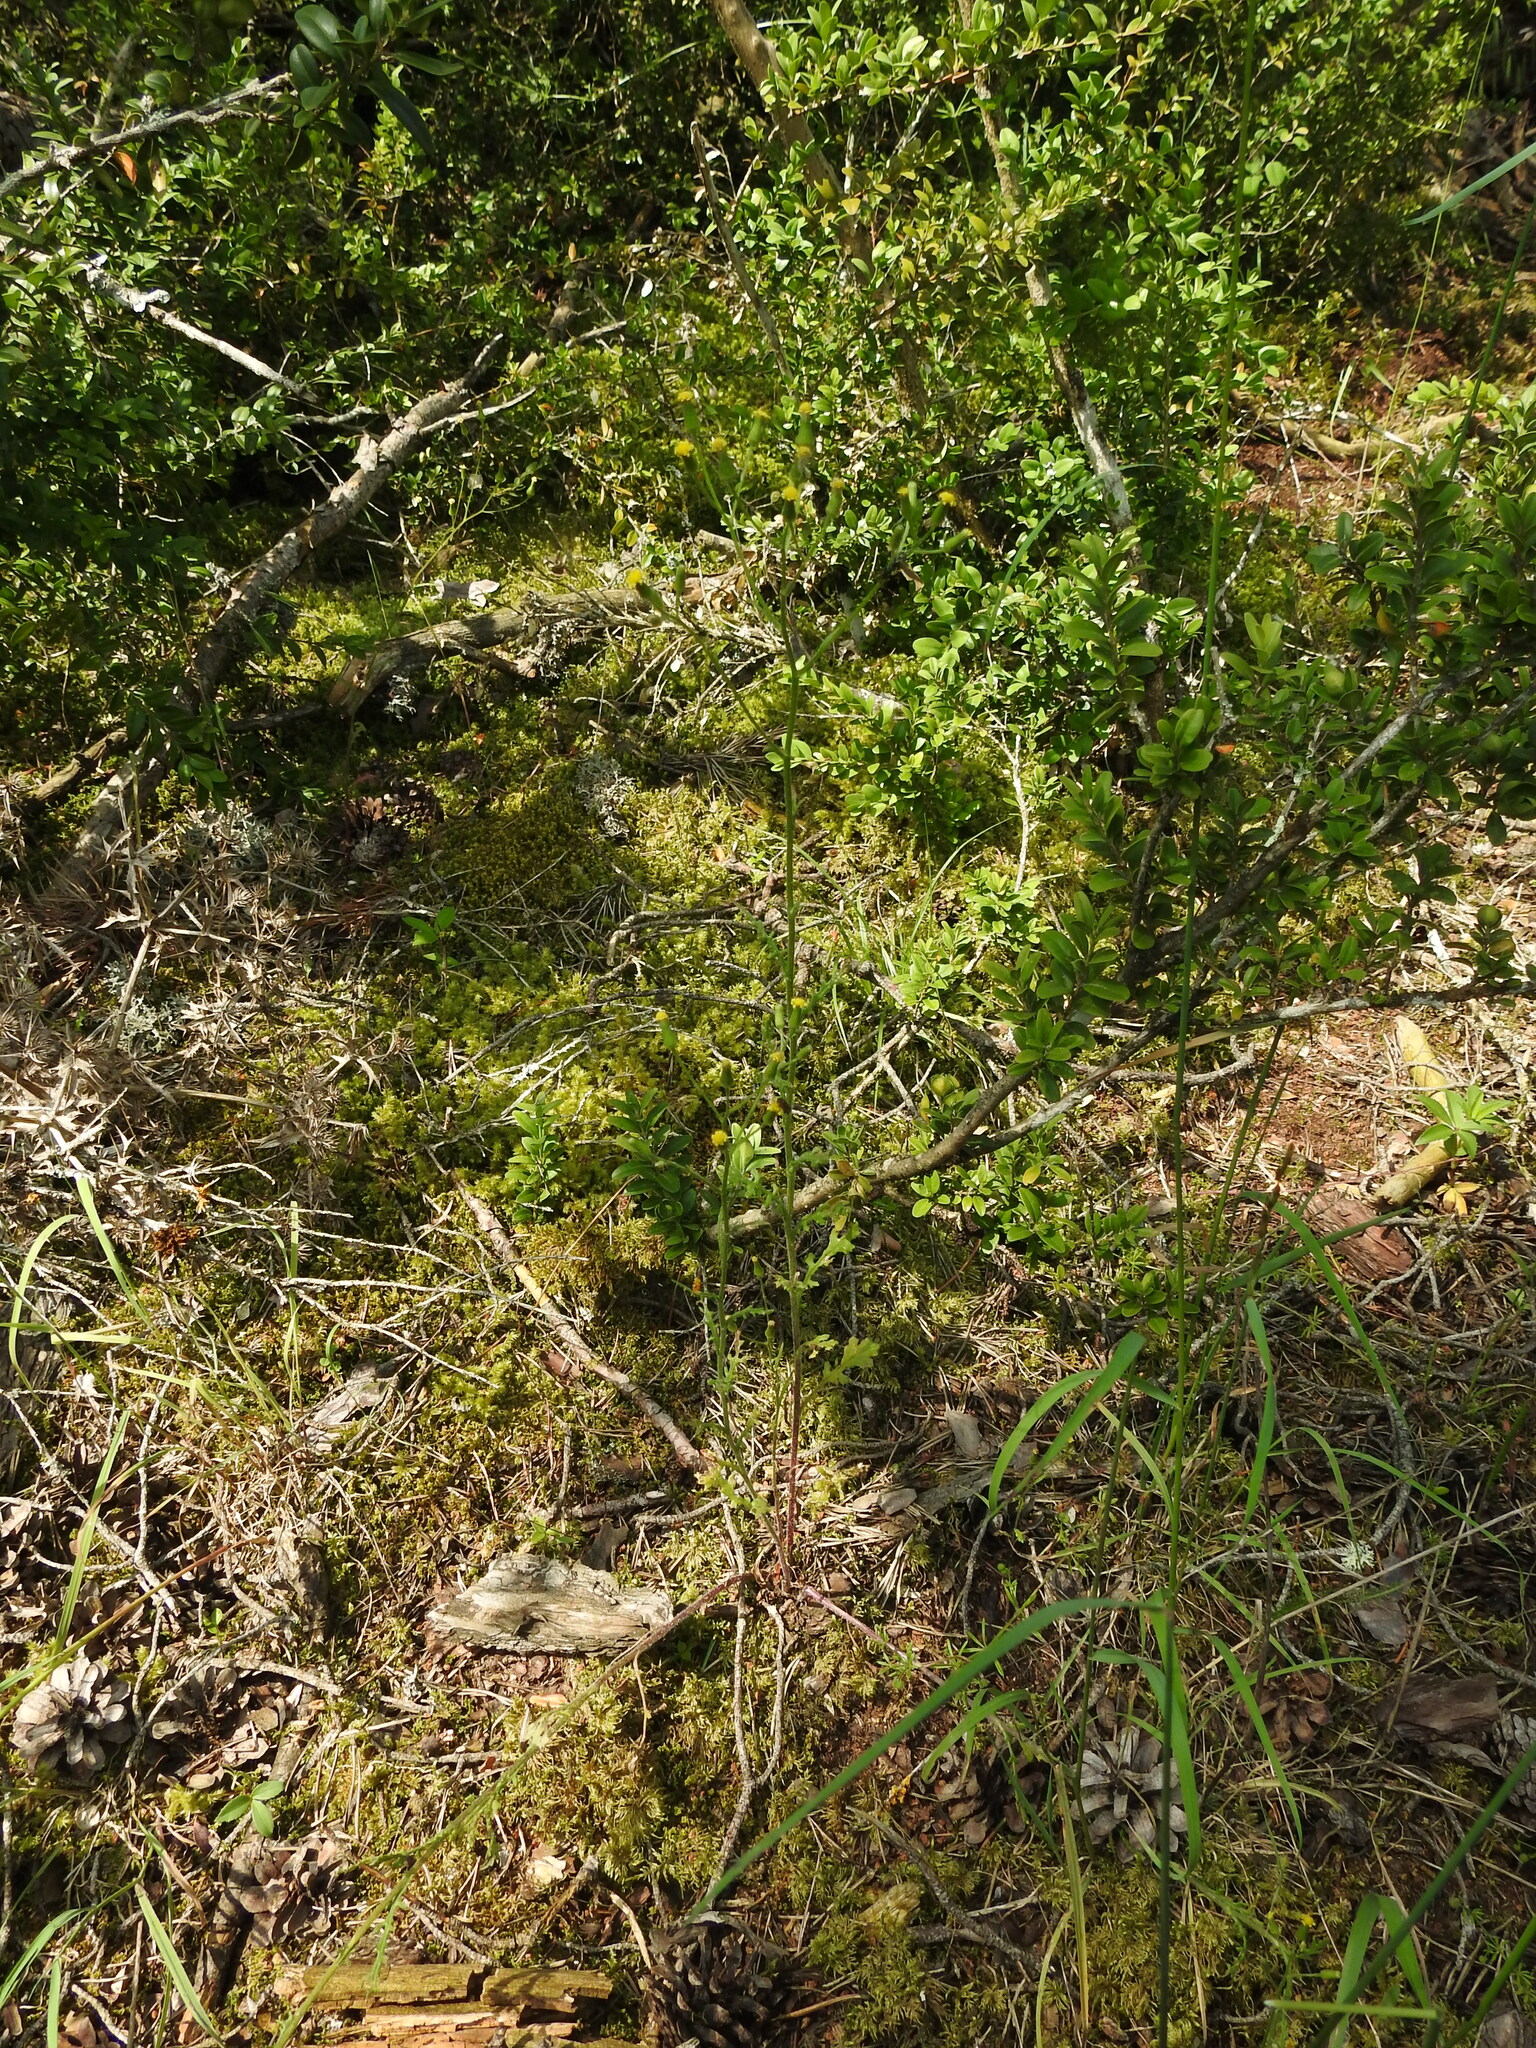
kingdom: Plantae
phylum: Tracheophyta
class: Magnoliopsida
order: Asterales
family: Asteraceae
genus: Senecio
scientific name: Senecio lividus
